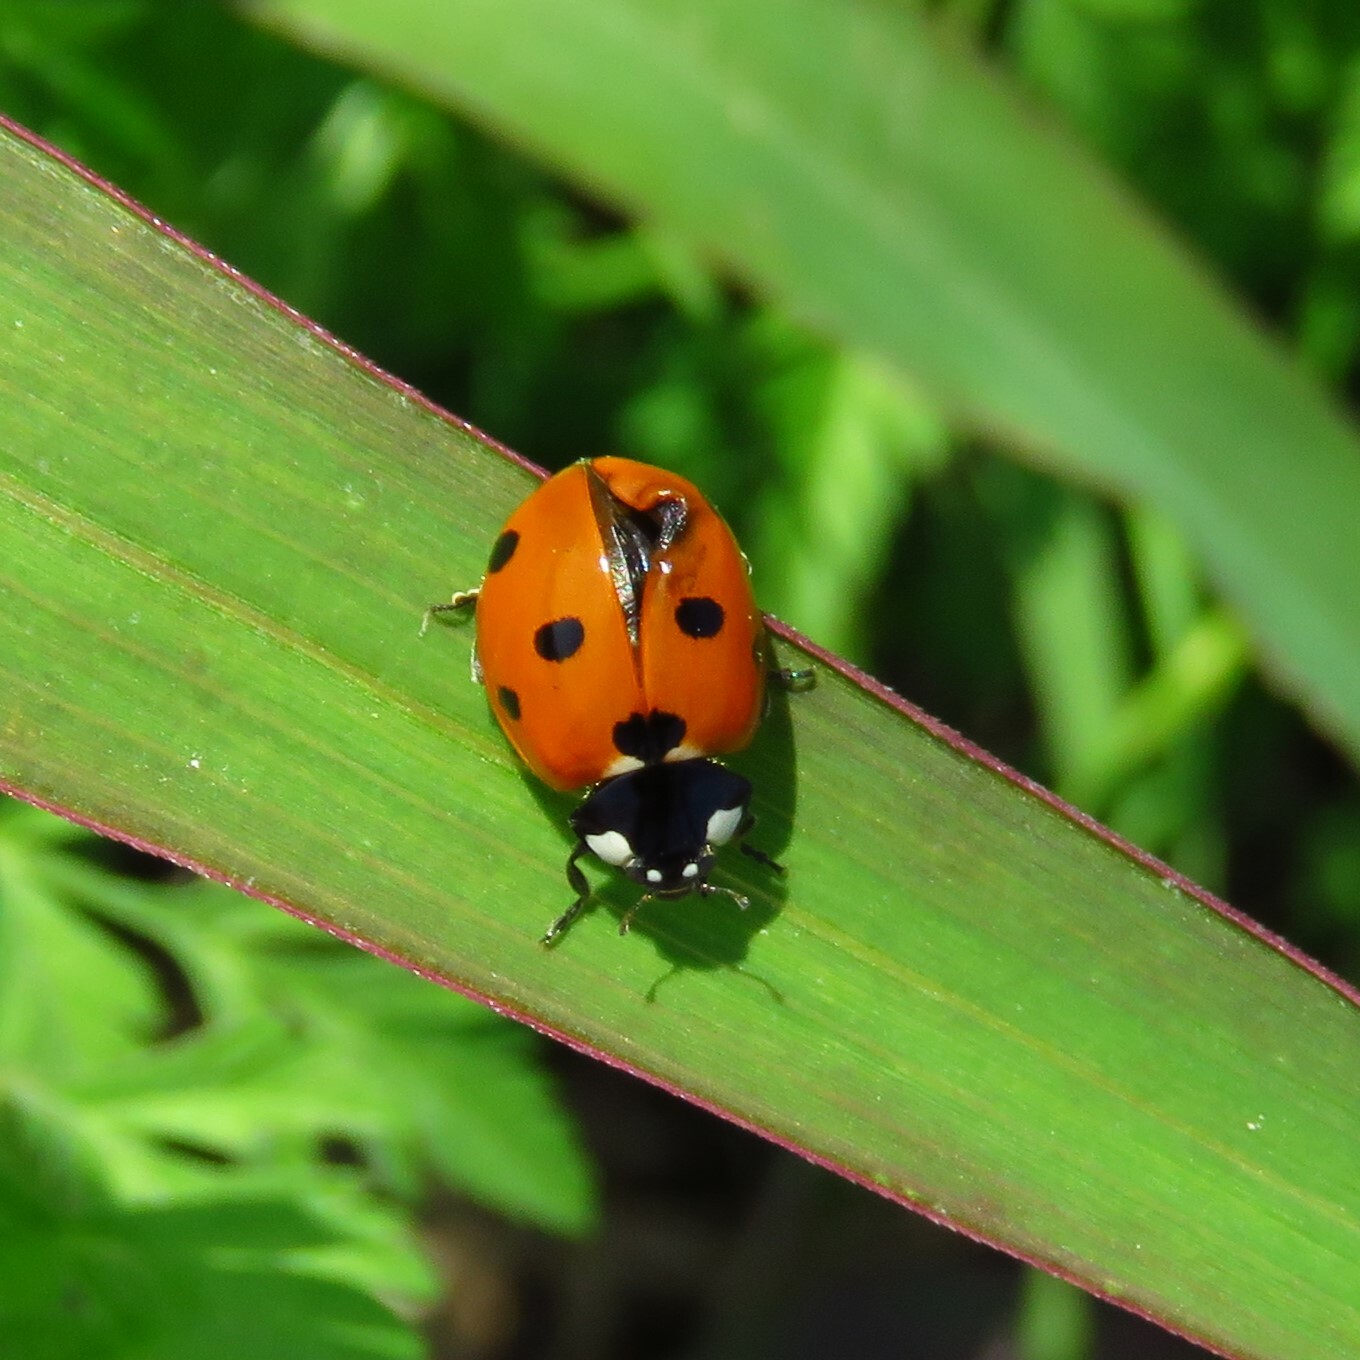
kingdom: Animalia
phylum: Arthropoda
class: Insecta
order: Coleoptera
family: Coccinellidae
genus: Coccinella
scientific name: Coccinella septempunctata
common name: Sevenspotted lady beetle
